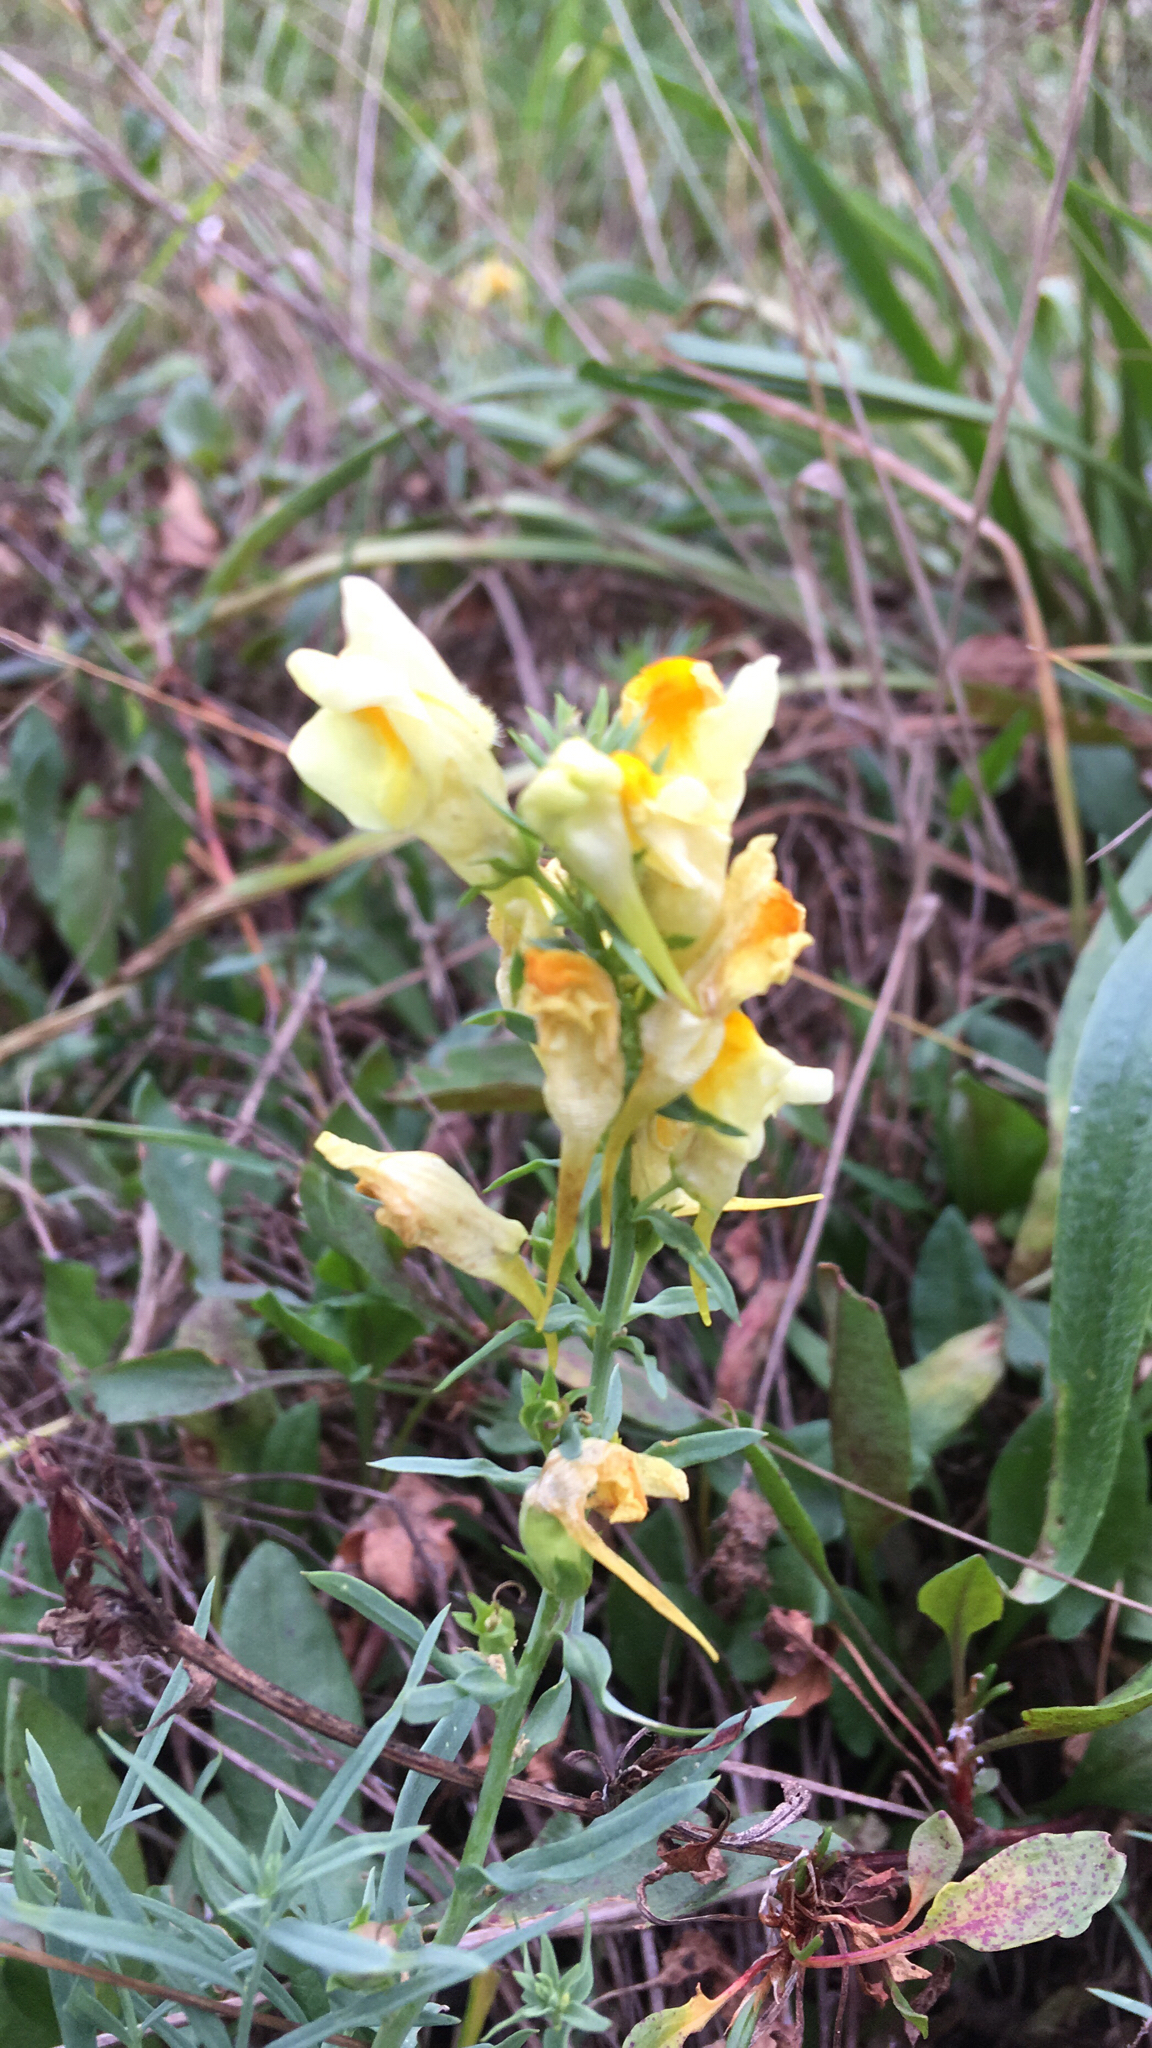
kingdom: Plantae
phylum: Tracheophyta
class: Magnoliopsida
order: Lamiales
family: Plantaginaceae
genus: Linaria
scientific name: Linaria vulgaris
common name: Butter and eggs
